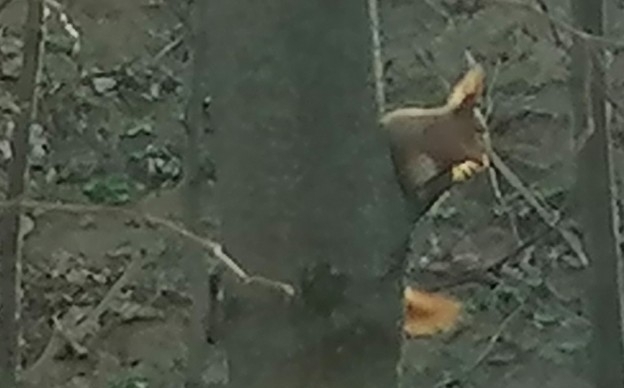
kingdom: Animalia
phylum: Chordata
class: Mammalia
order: Rodentia
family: Sciuridae
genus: Sciurus
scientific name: Sciurus vulgaris
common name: Eurasian red squirrel
